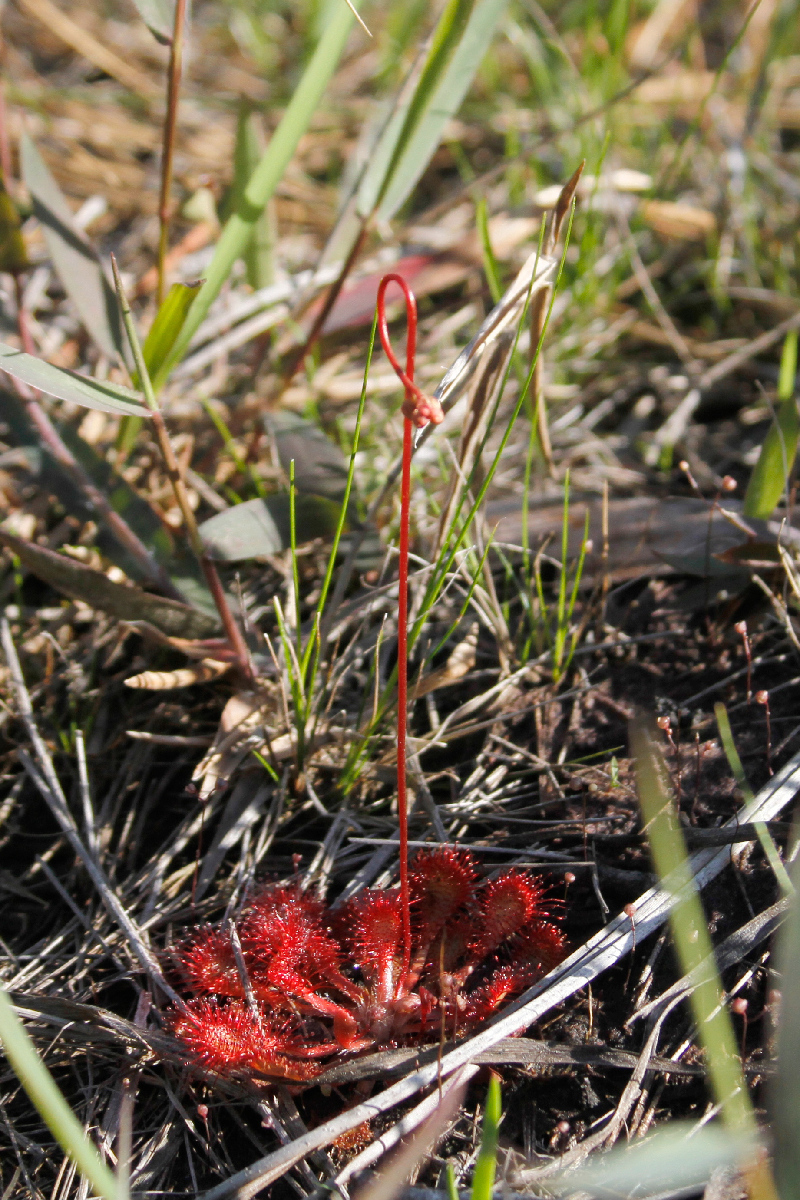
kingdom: Plantae
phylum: Tracheophyta
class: Magnoliopsida
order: Caryophyllales
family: Droseraceae
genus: Drosera
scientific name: Drosera capillaris
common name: Pink sundew
